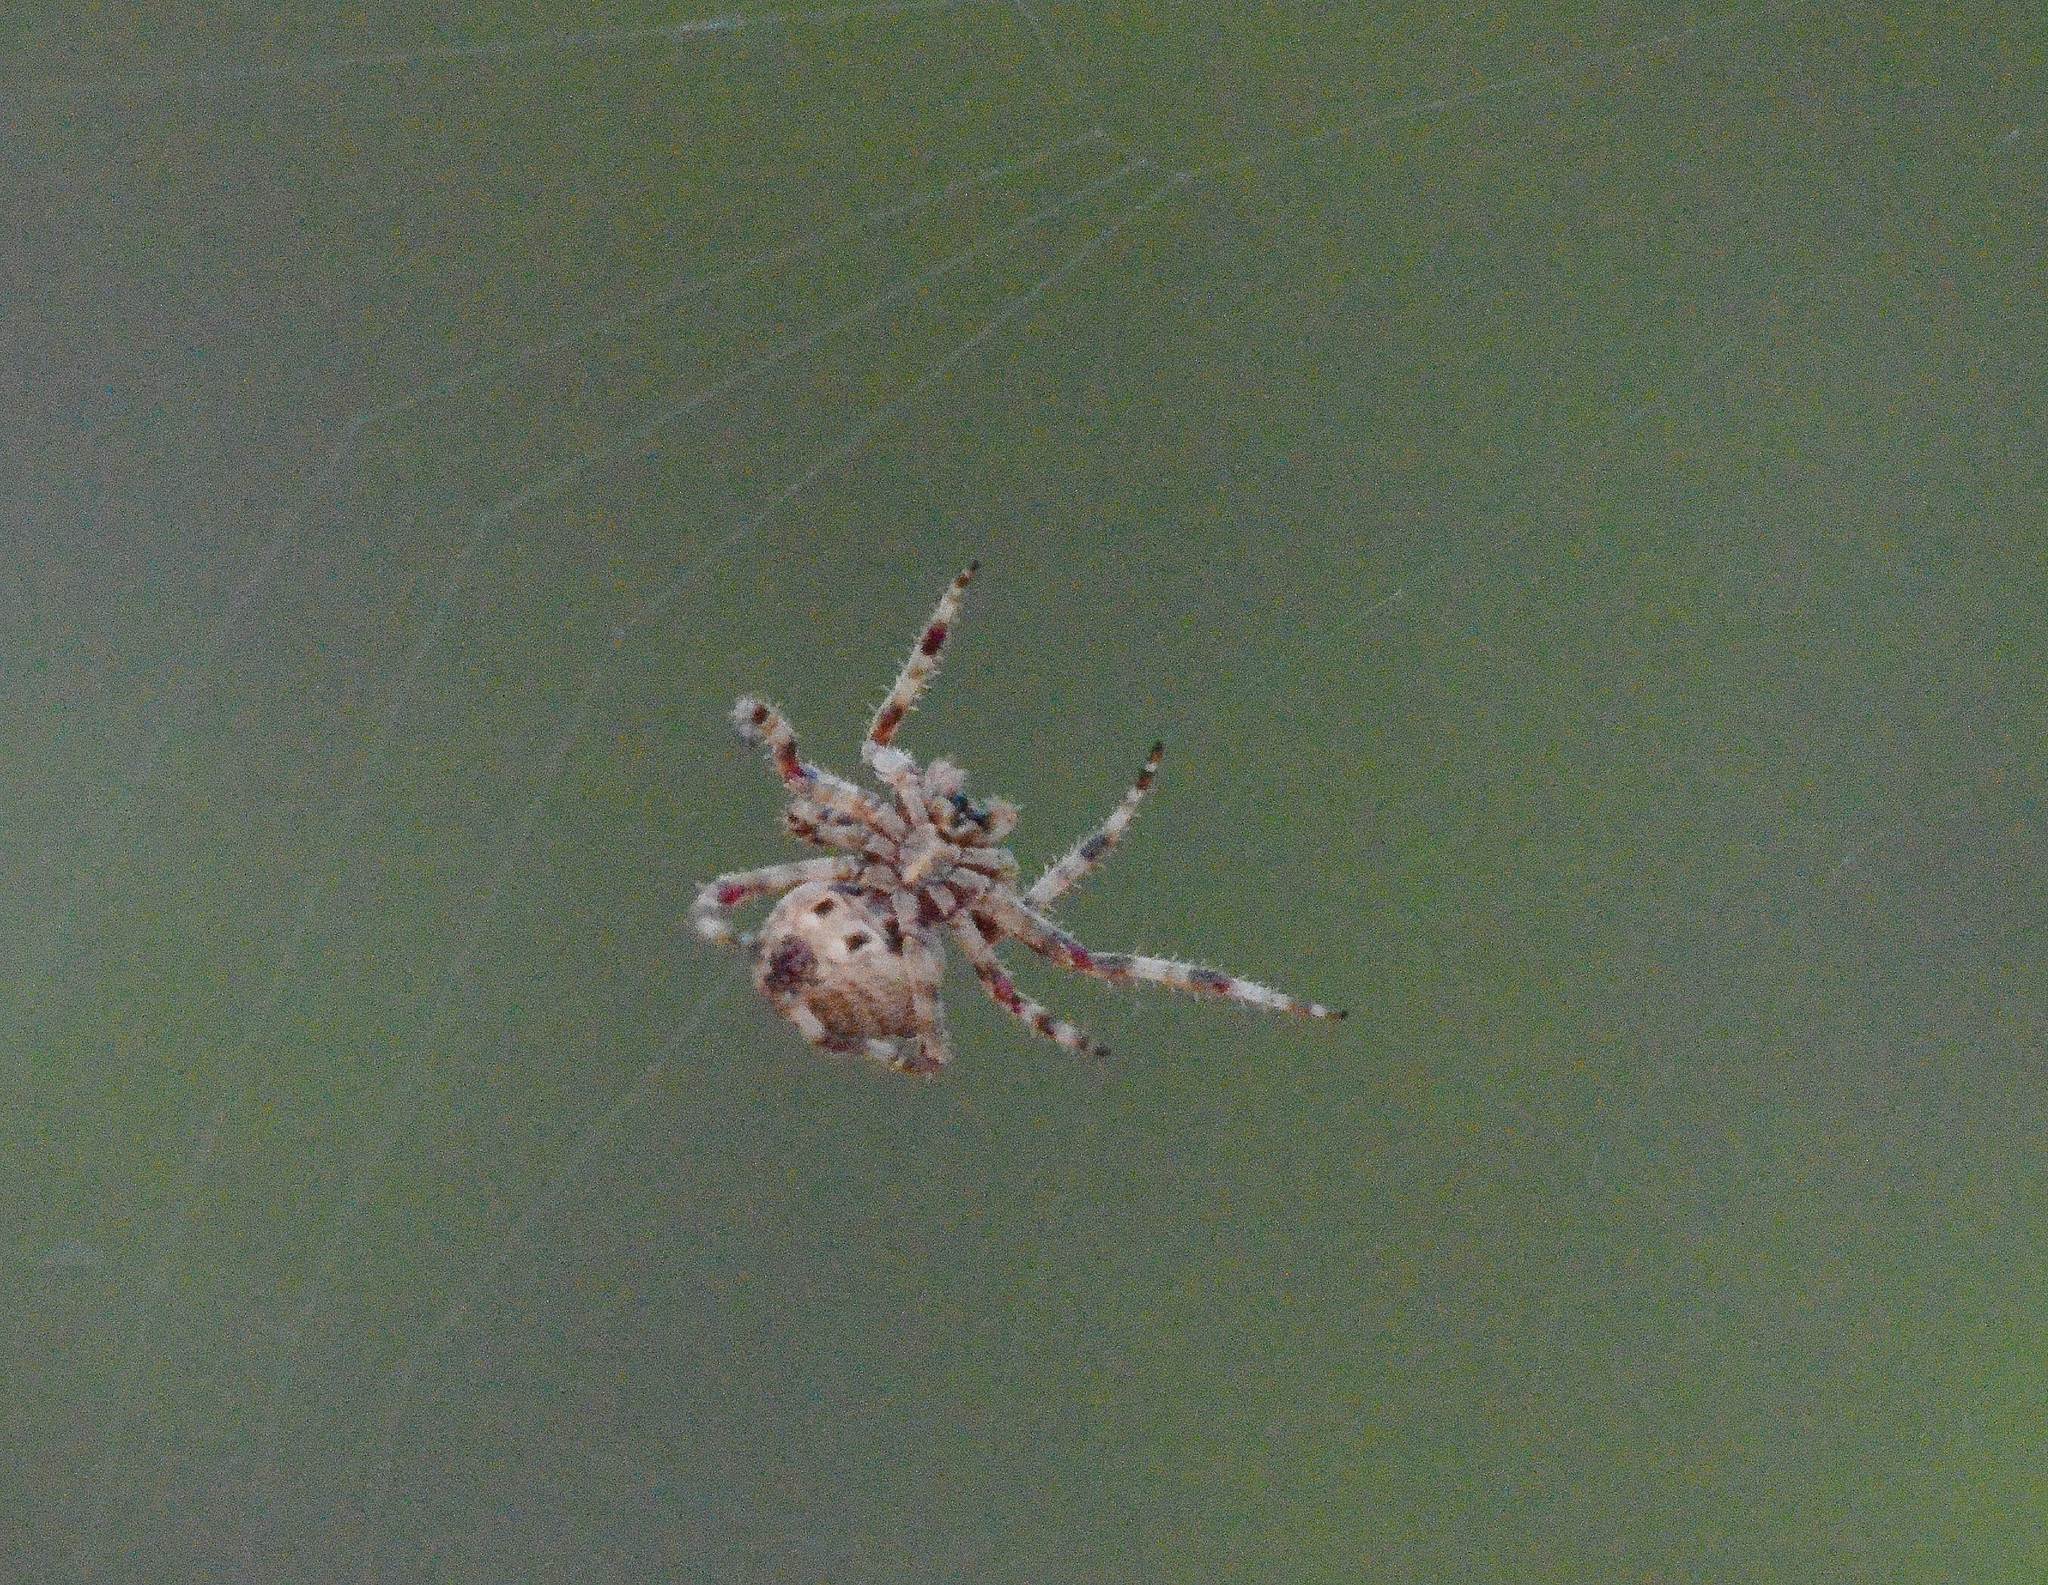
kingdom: Animalia
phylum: Arthropoda
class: Arachnida
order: Araneae
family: Araneidae
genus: Araneus
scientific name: Araneus angulatus
